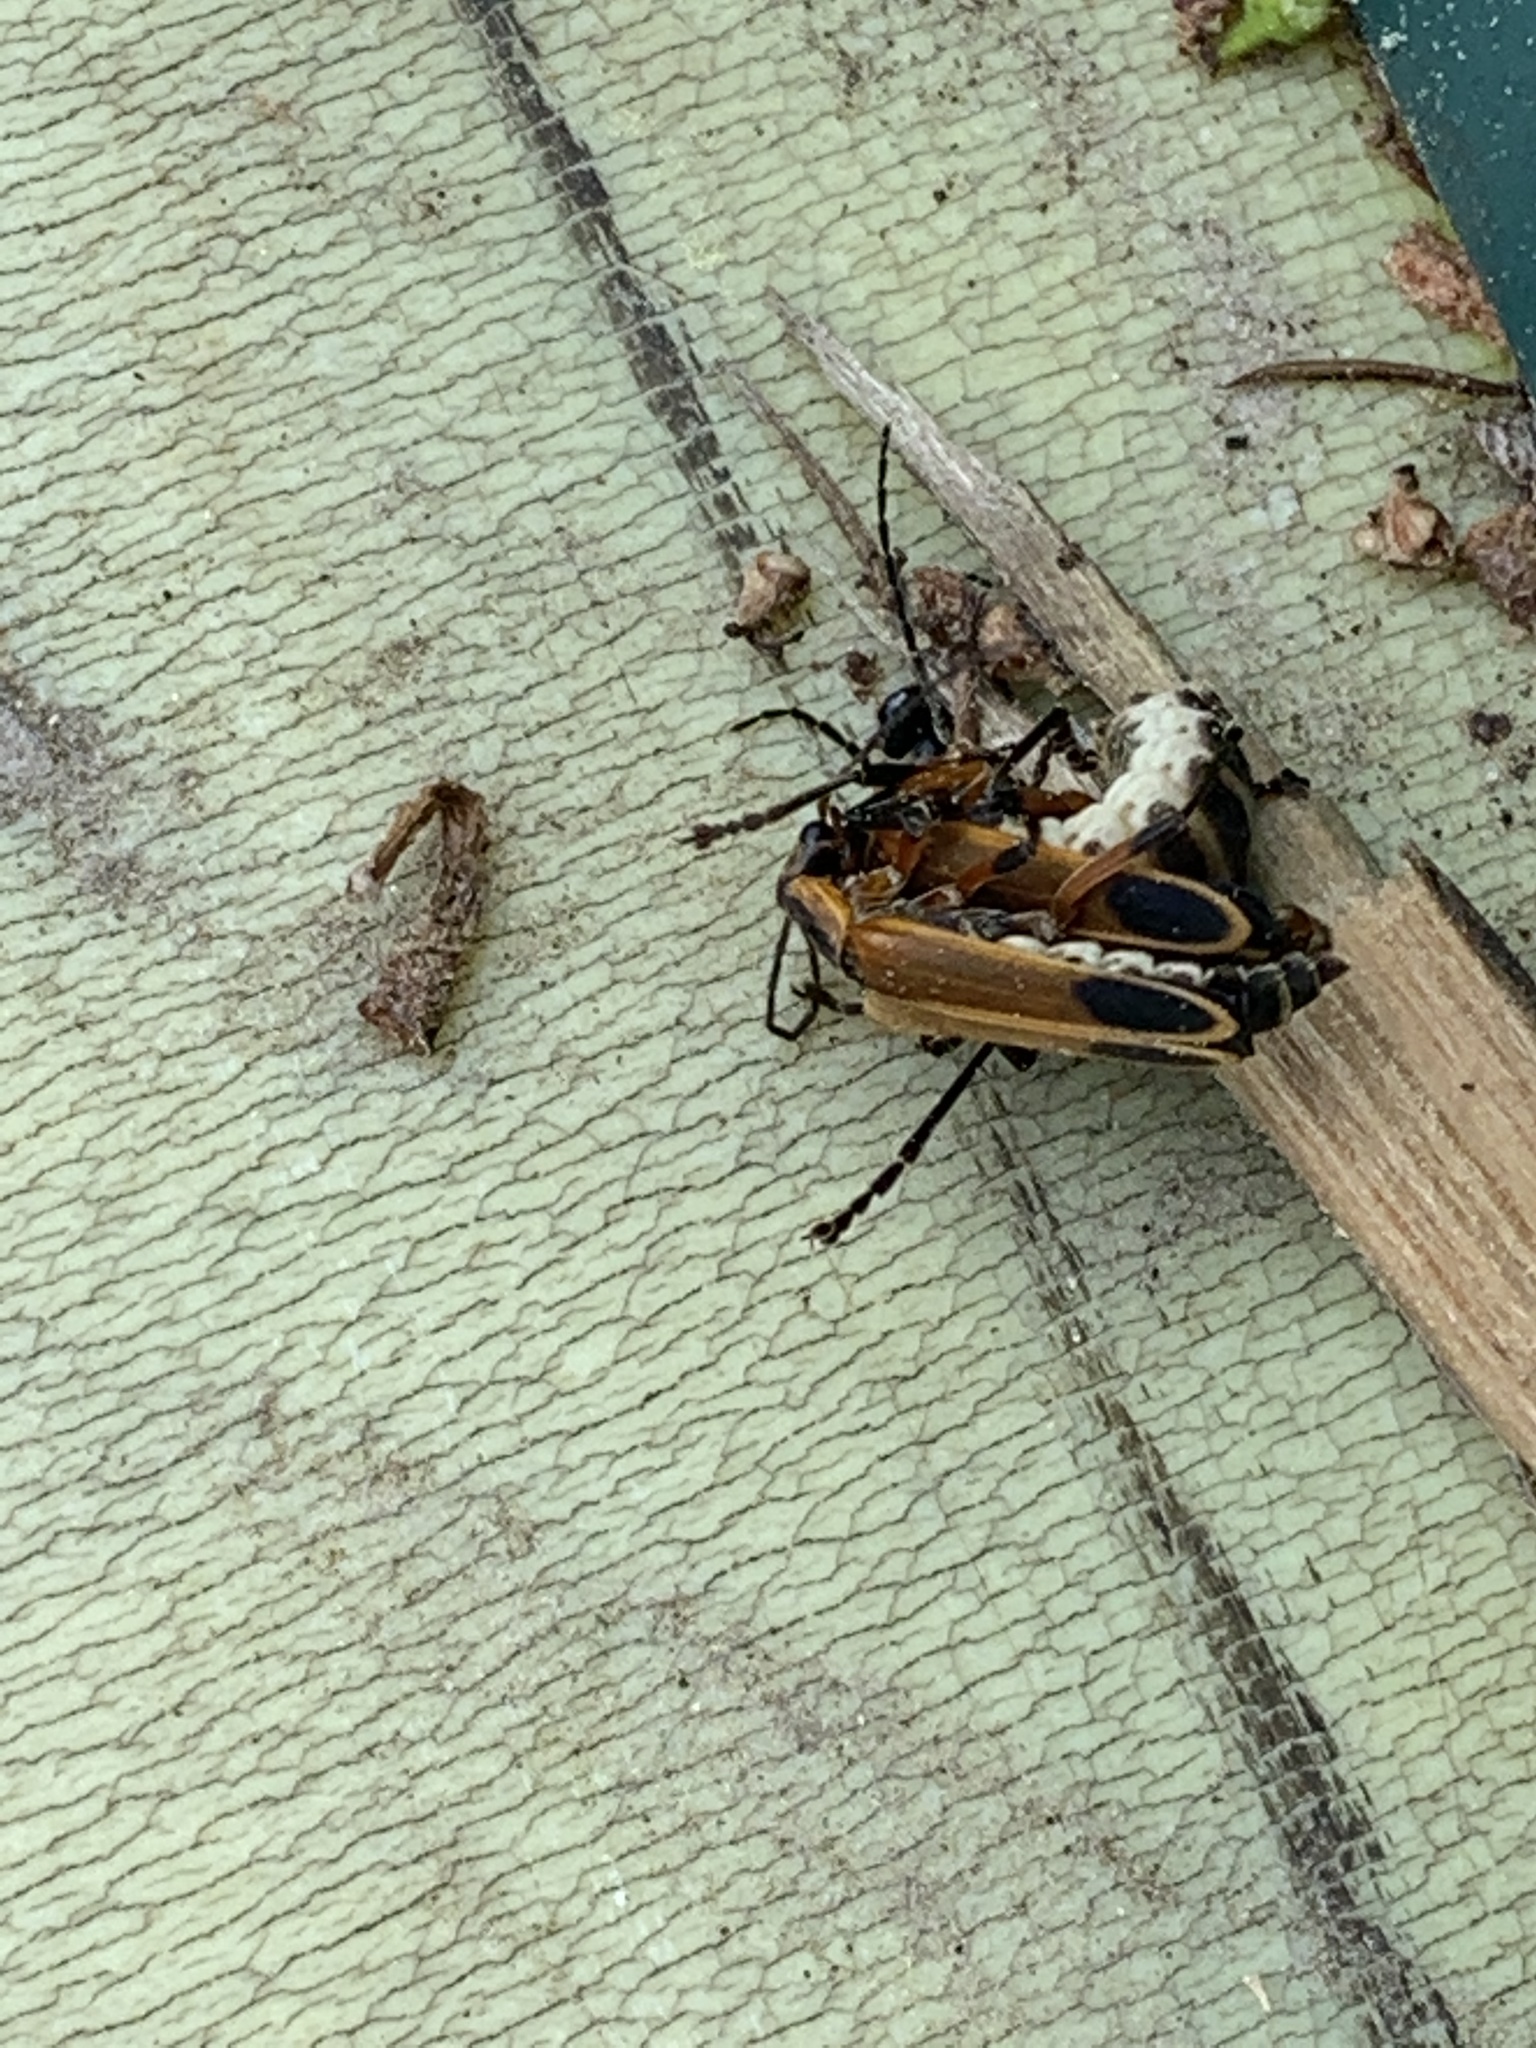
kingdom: Animalia
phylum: Arthropoda
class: Insecta
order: Coleoptera
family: Cantharidae
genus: Chauliognathus
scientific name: Chauliognathus marginatus
